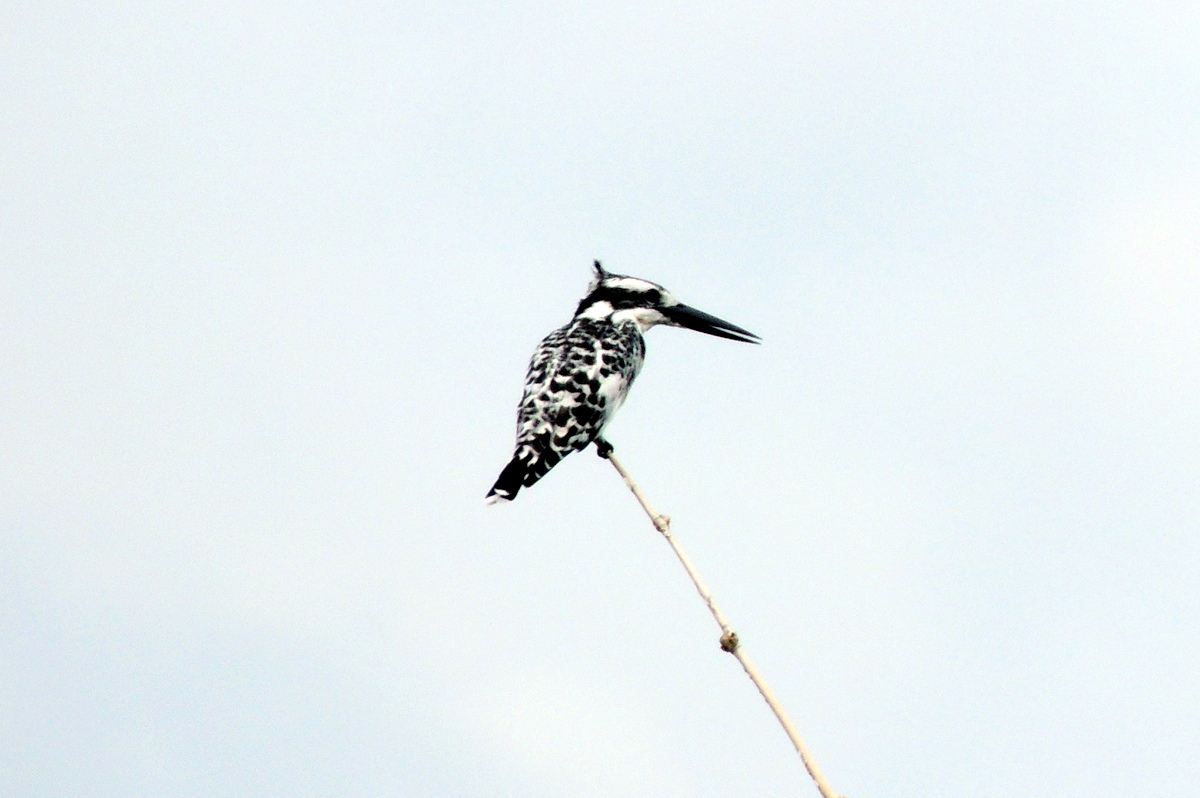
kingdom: Animalia
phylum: Chordata
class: Aves
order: Coraciiformes
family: Alcedinidae
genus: Ceryle
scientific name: Ceryle rudis
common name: Pied kingfisher
